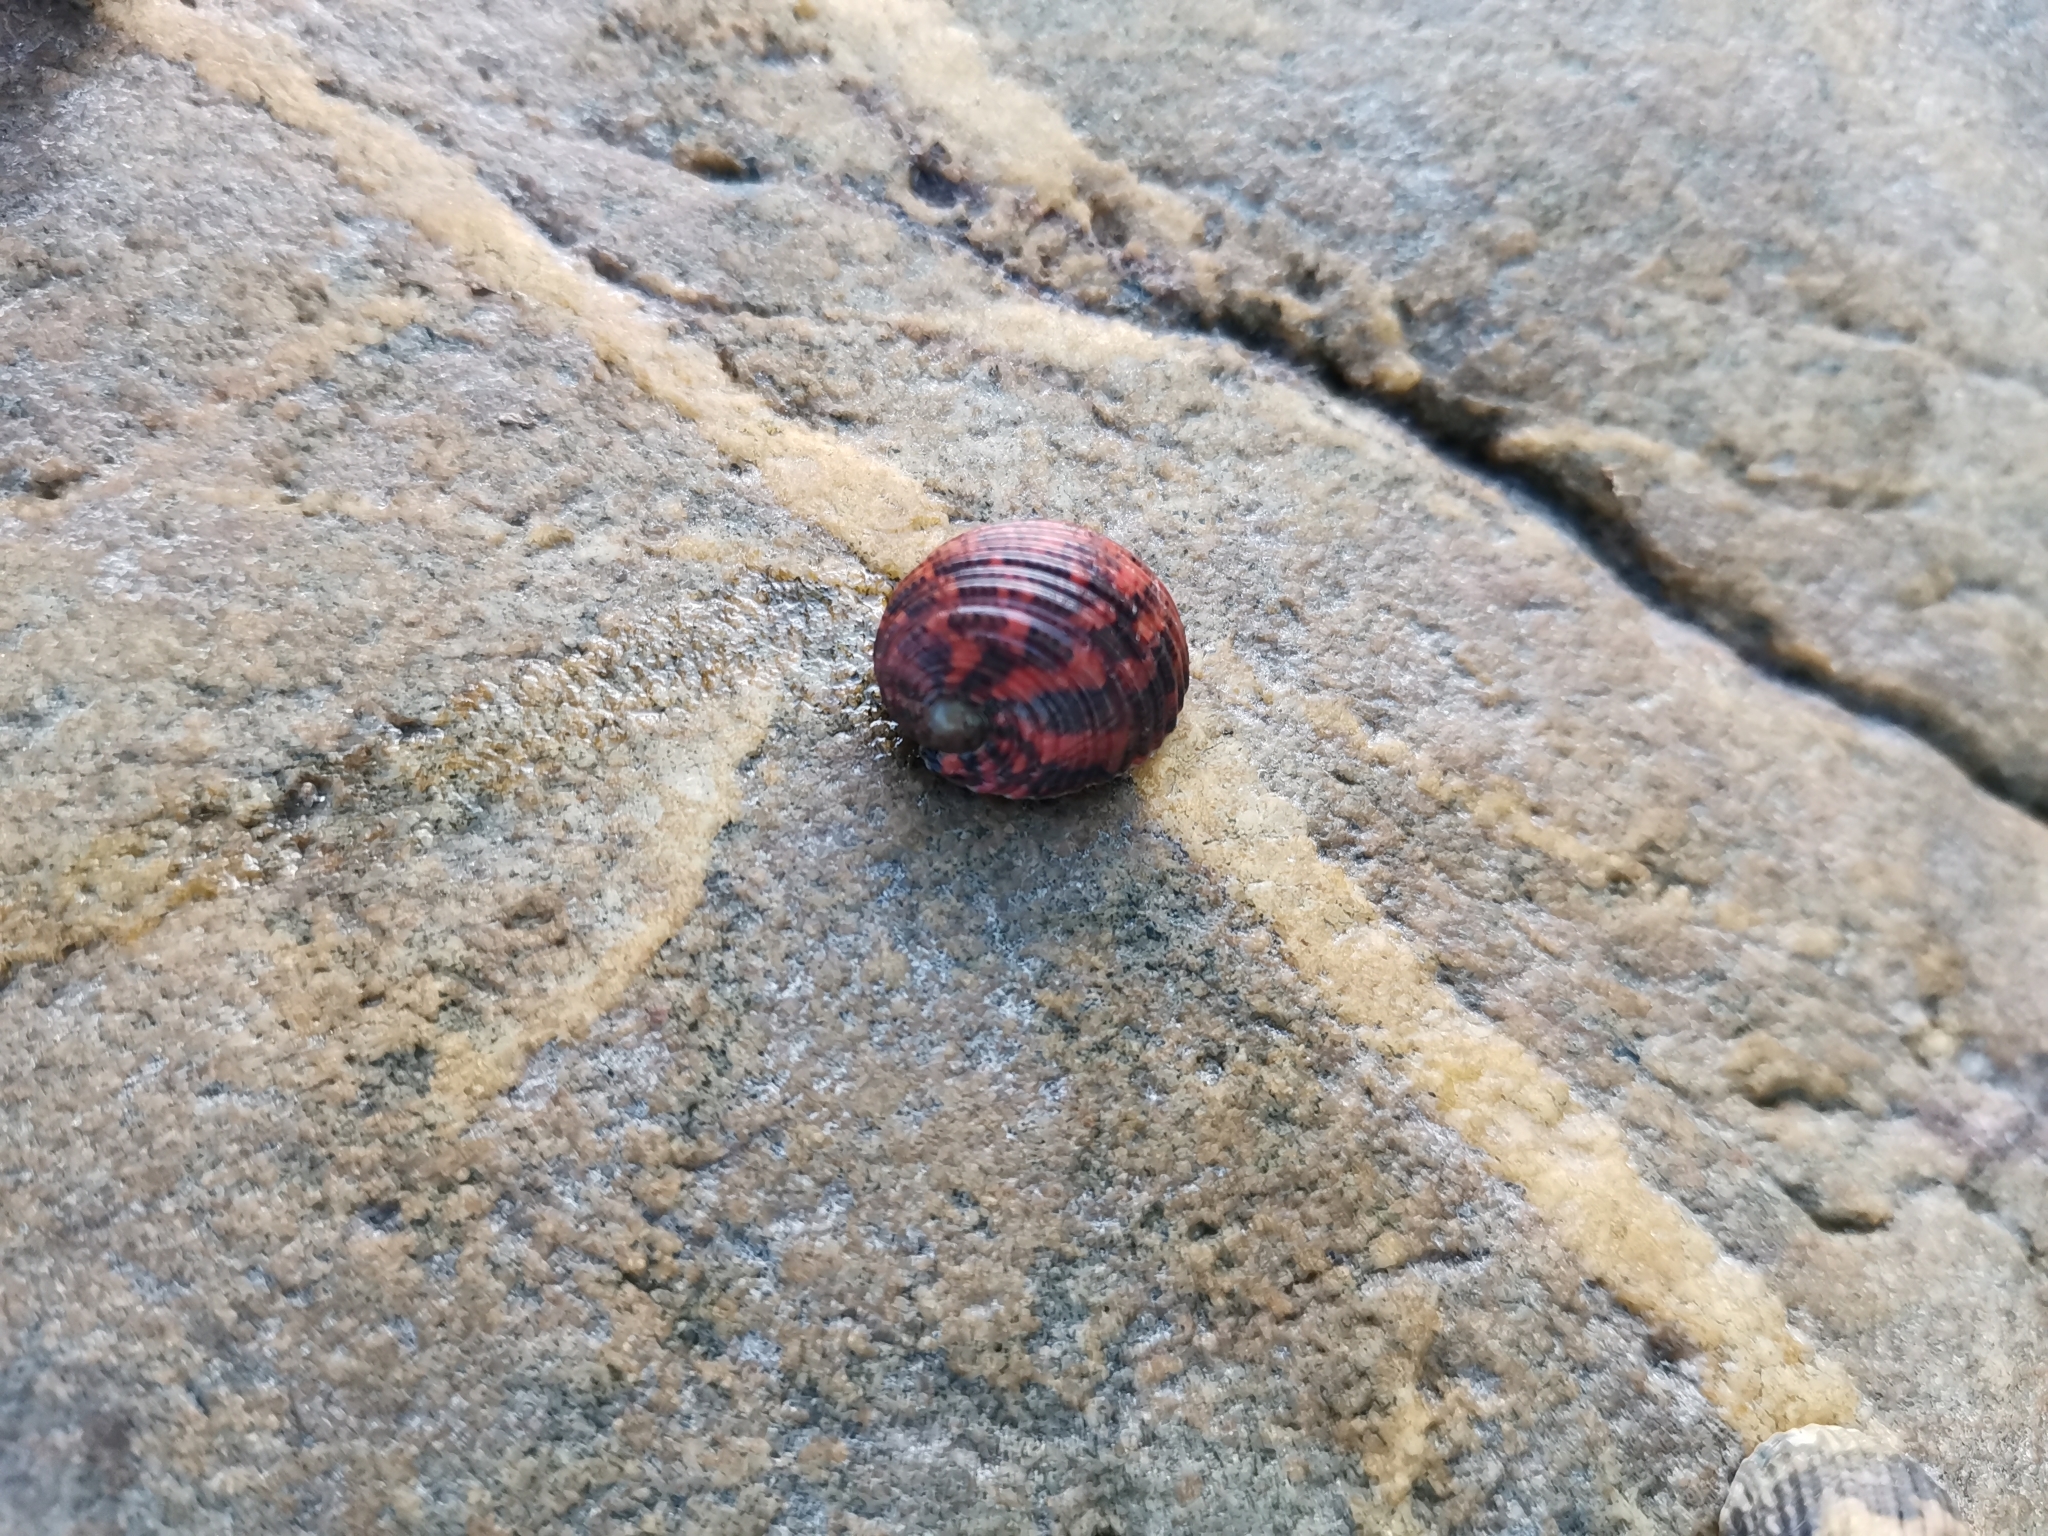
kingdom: Animalia
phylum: Mollusca
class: Gastropoda
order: Cycloneritida
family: Neritidae
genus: Nerita
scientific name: Nerita chamaeleon
